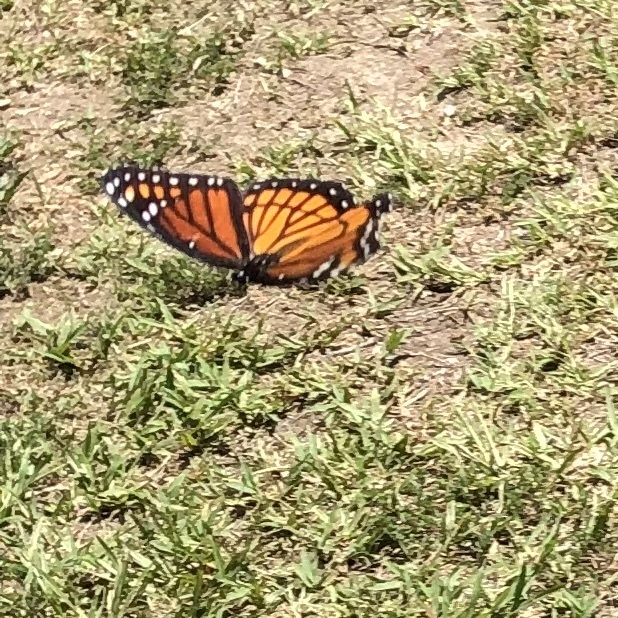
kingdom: Animalia
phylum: Arthropoda
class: Insecta
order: Lepidoptera
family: Nymphalidae
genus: Limenitis
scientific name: Limenitis archippus
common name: Viceroy
